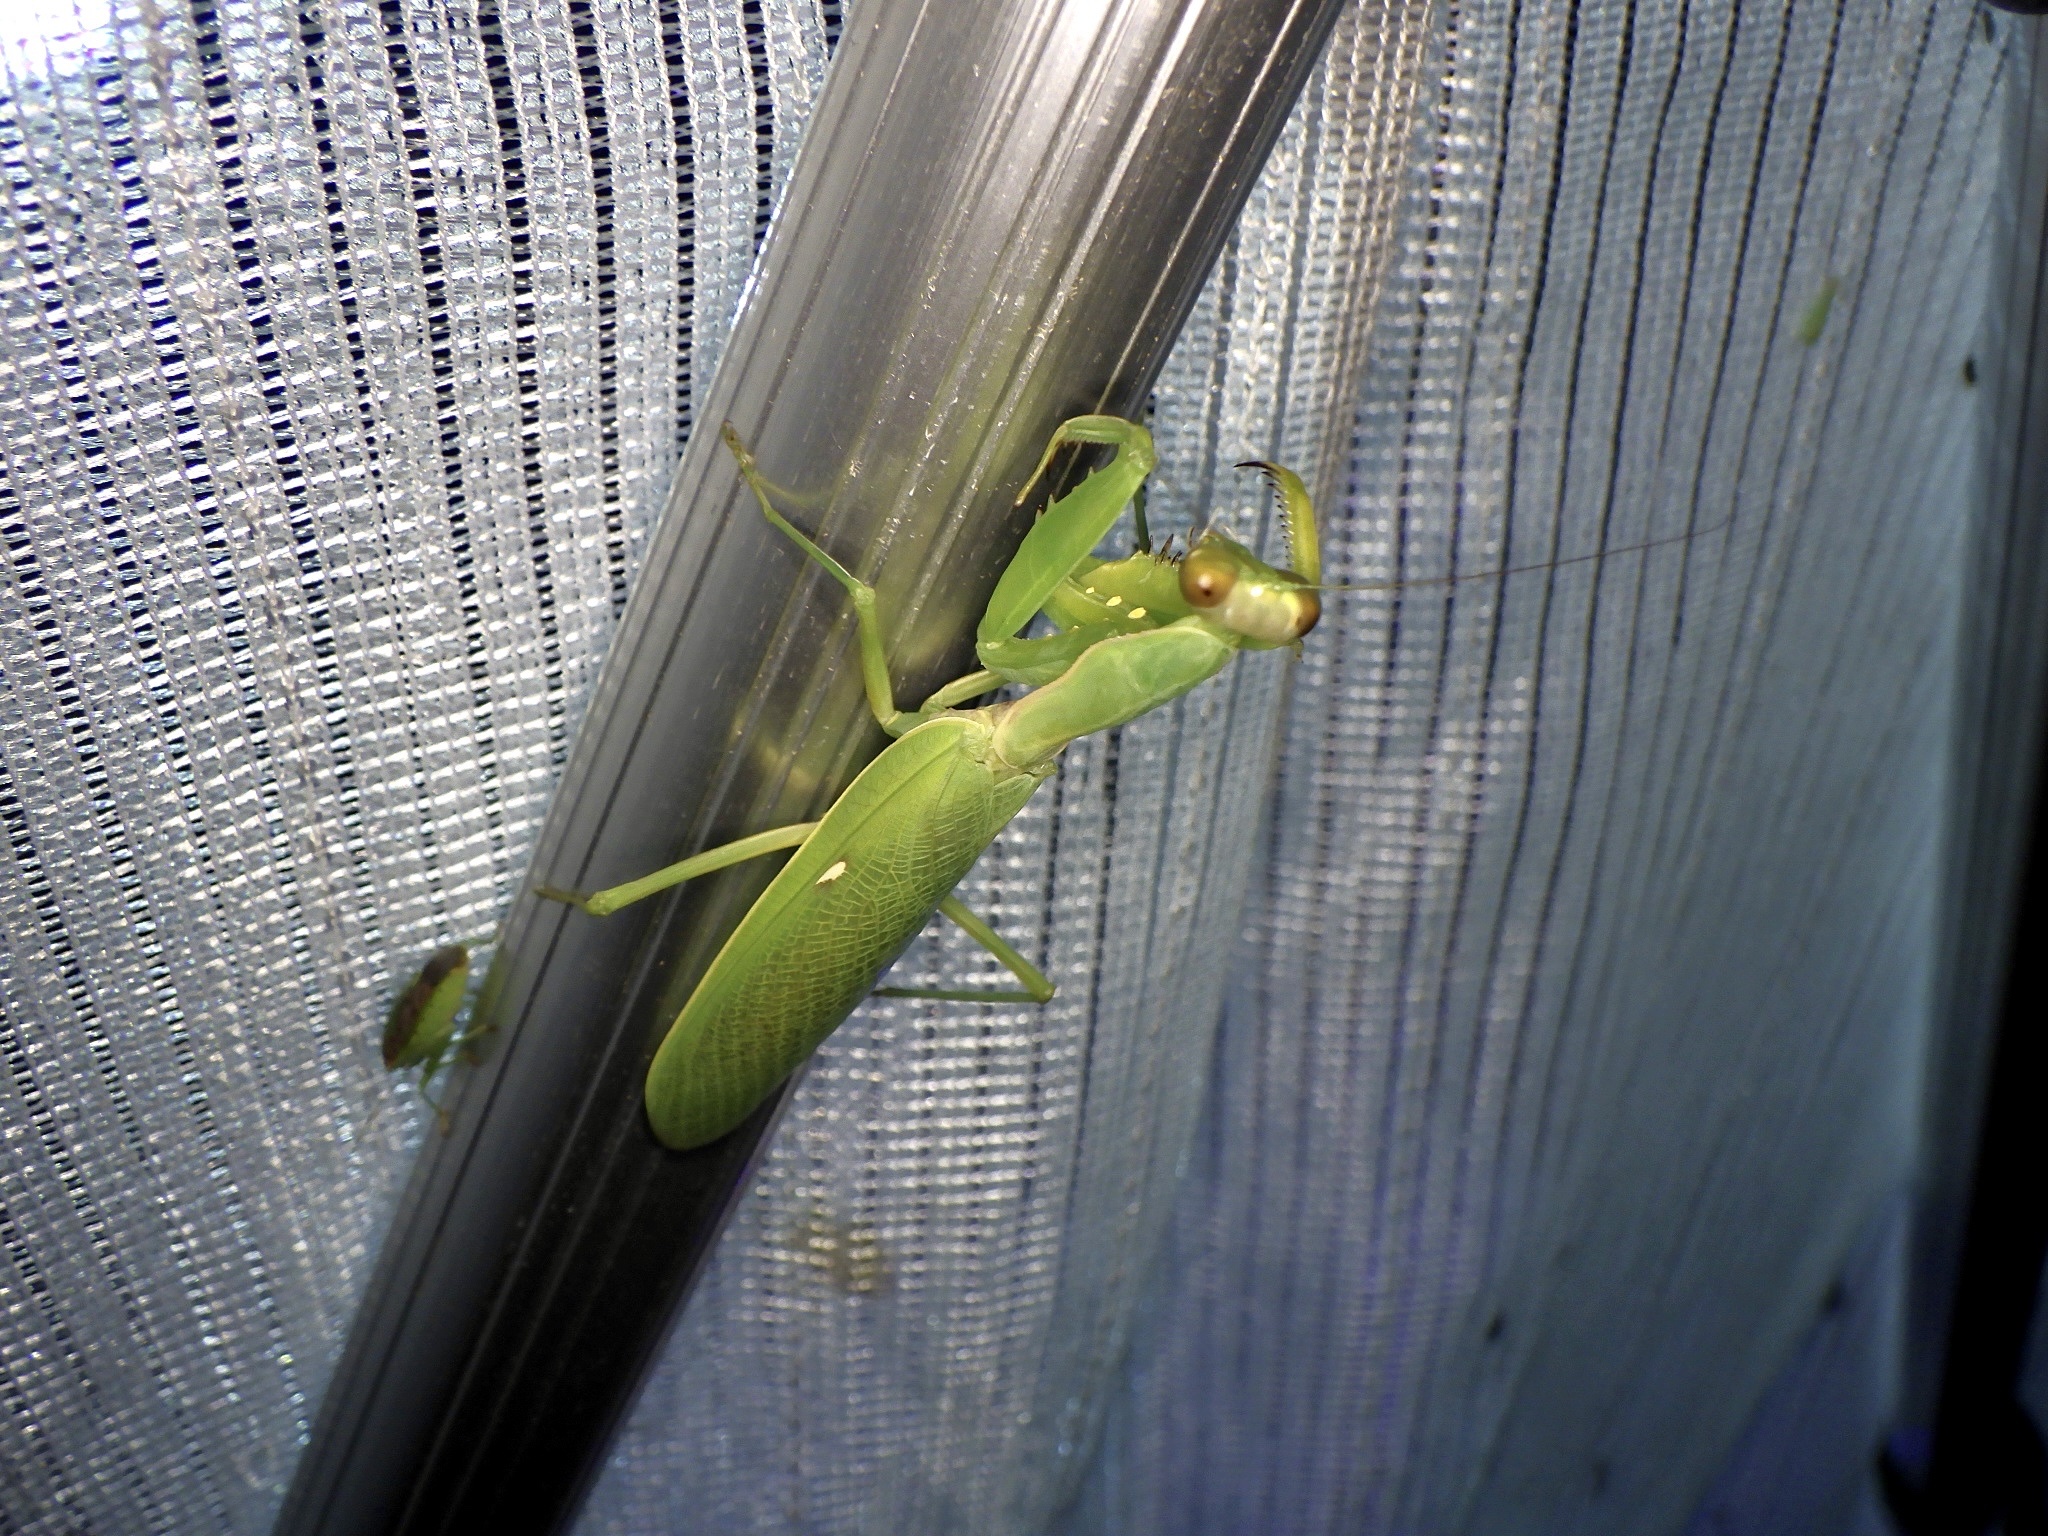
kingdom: Animalia
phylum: Arthropoda
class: Insecta
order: Mantodea
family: Mantidae
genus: Hierodula
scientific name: Hierodula patellifera
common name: Asian mantis
